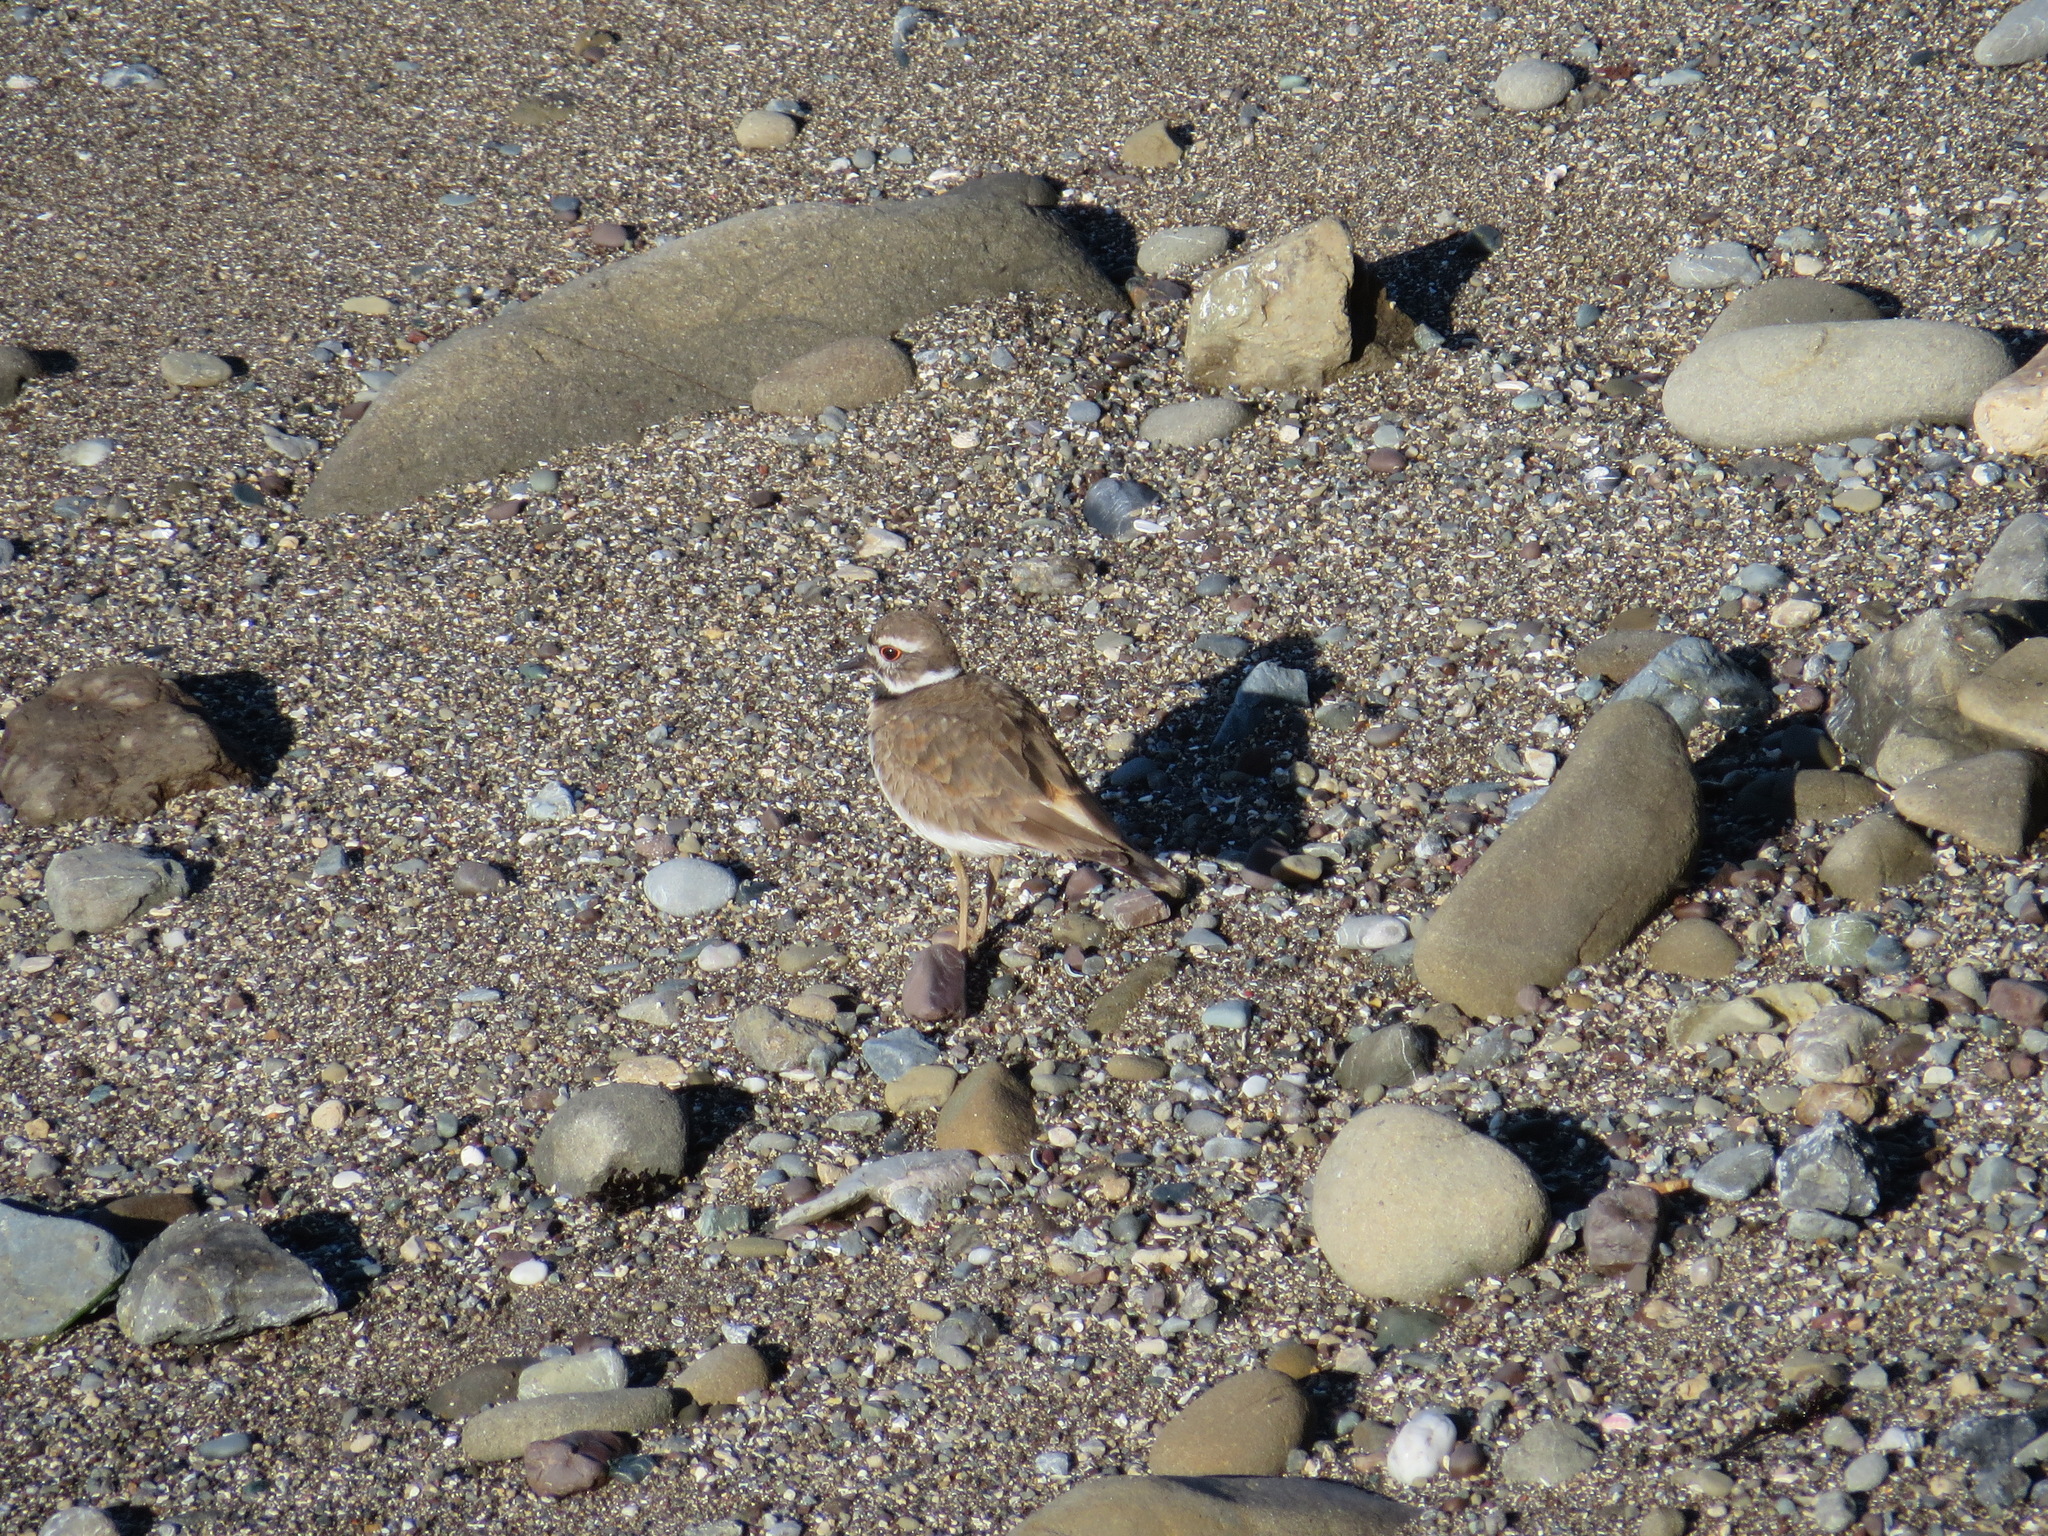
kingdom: Animalia
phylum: Chordata
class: Aves
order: Charadriiformes
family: Charadriidae
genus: Charadrius
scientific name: Charadrius vociferus
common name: Killdeer
